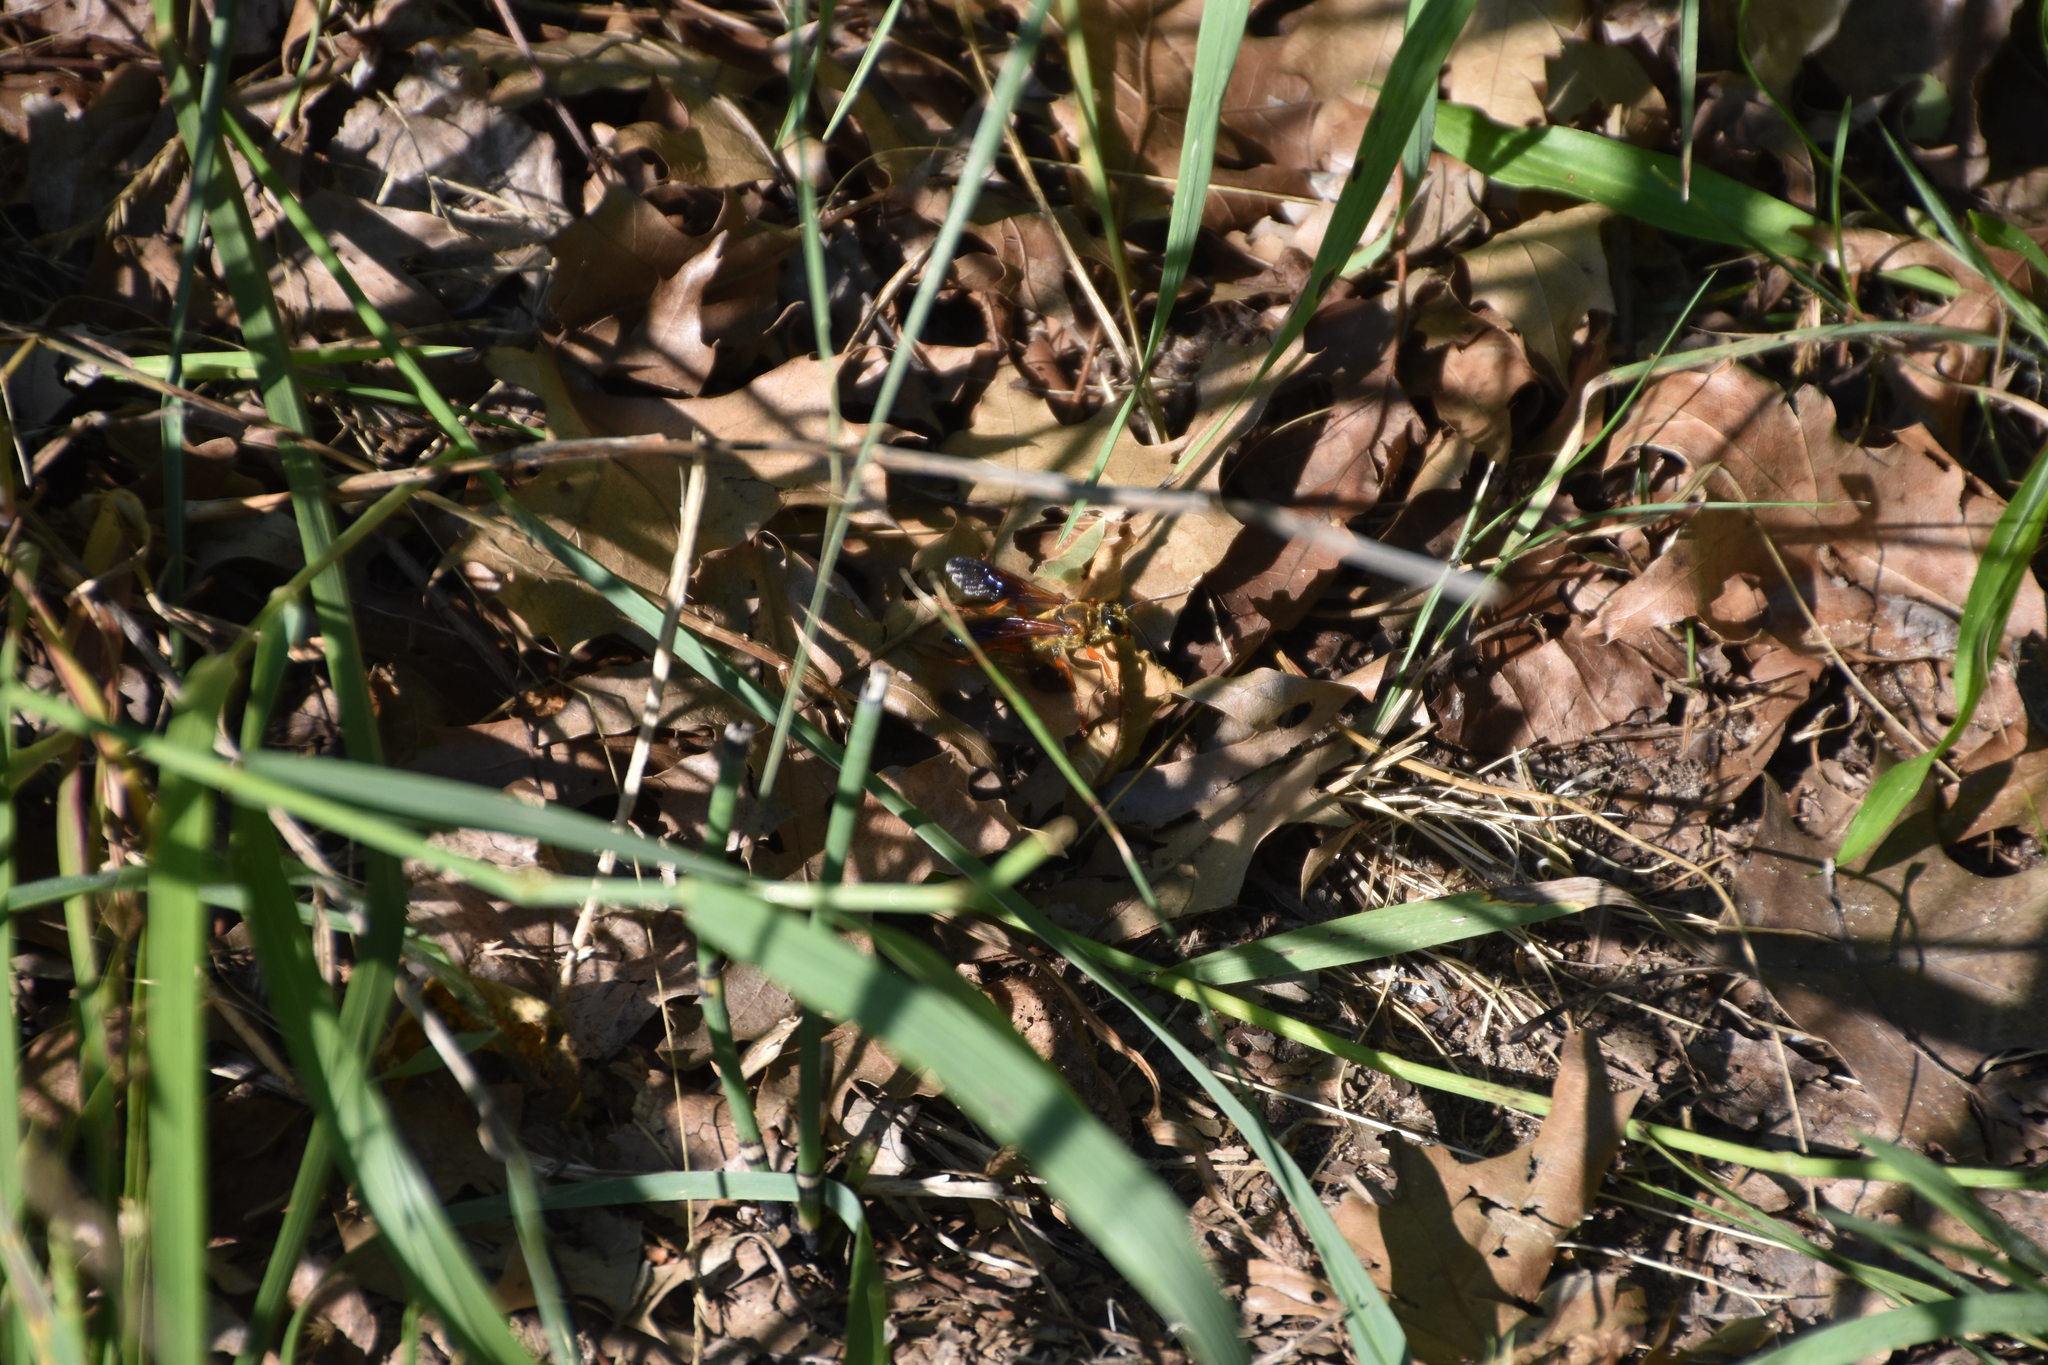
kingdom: Animalia
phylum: Arthropoda
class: Insecta
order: Hymenoptera
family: Sphecidae
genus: Sphex
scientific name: Sphex ichneumoneus
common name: Great golden digger wasp
